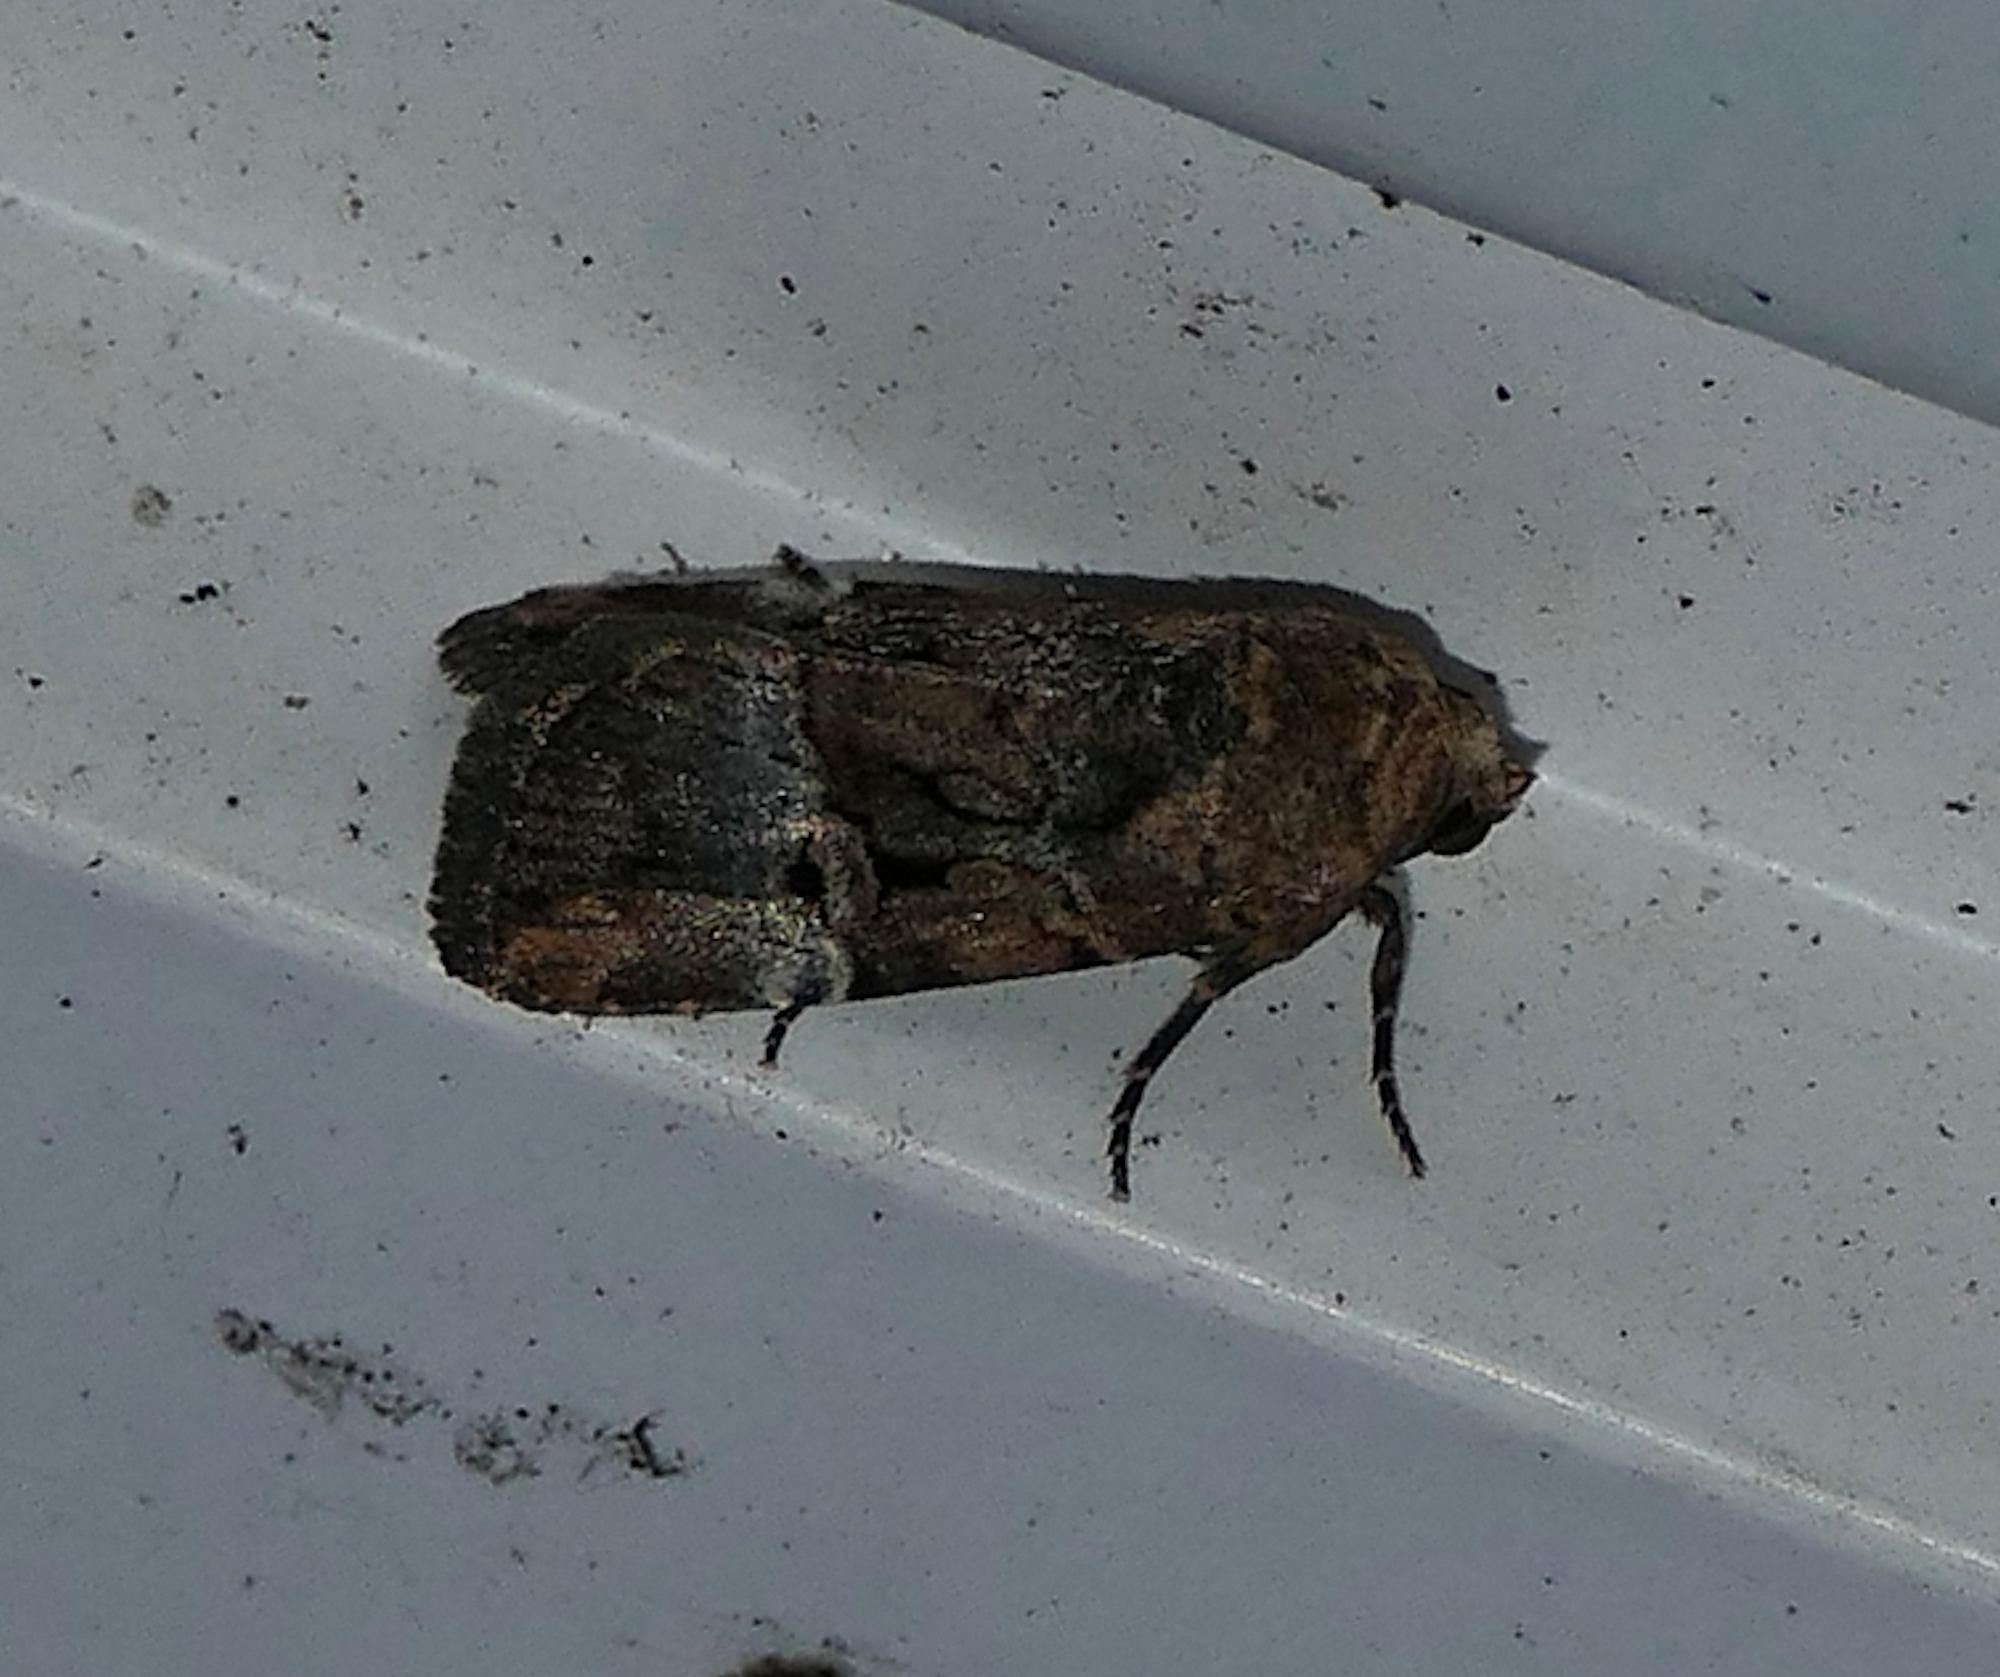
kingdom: Animalia
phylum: Arthropoda
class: Insecta
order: Lepidoptera
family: Noctuidae
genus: Elaphria
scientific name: Elaphria chalcedonia
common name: Chalcedony midget
